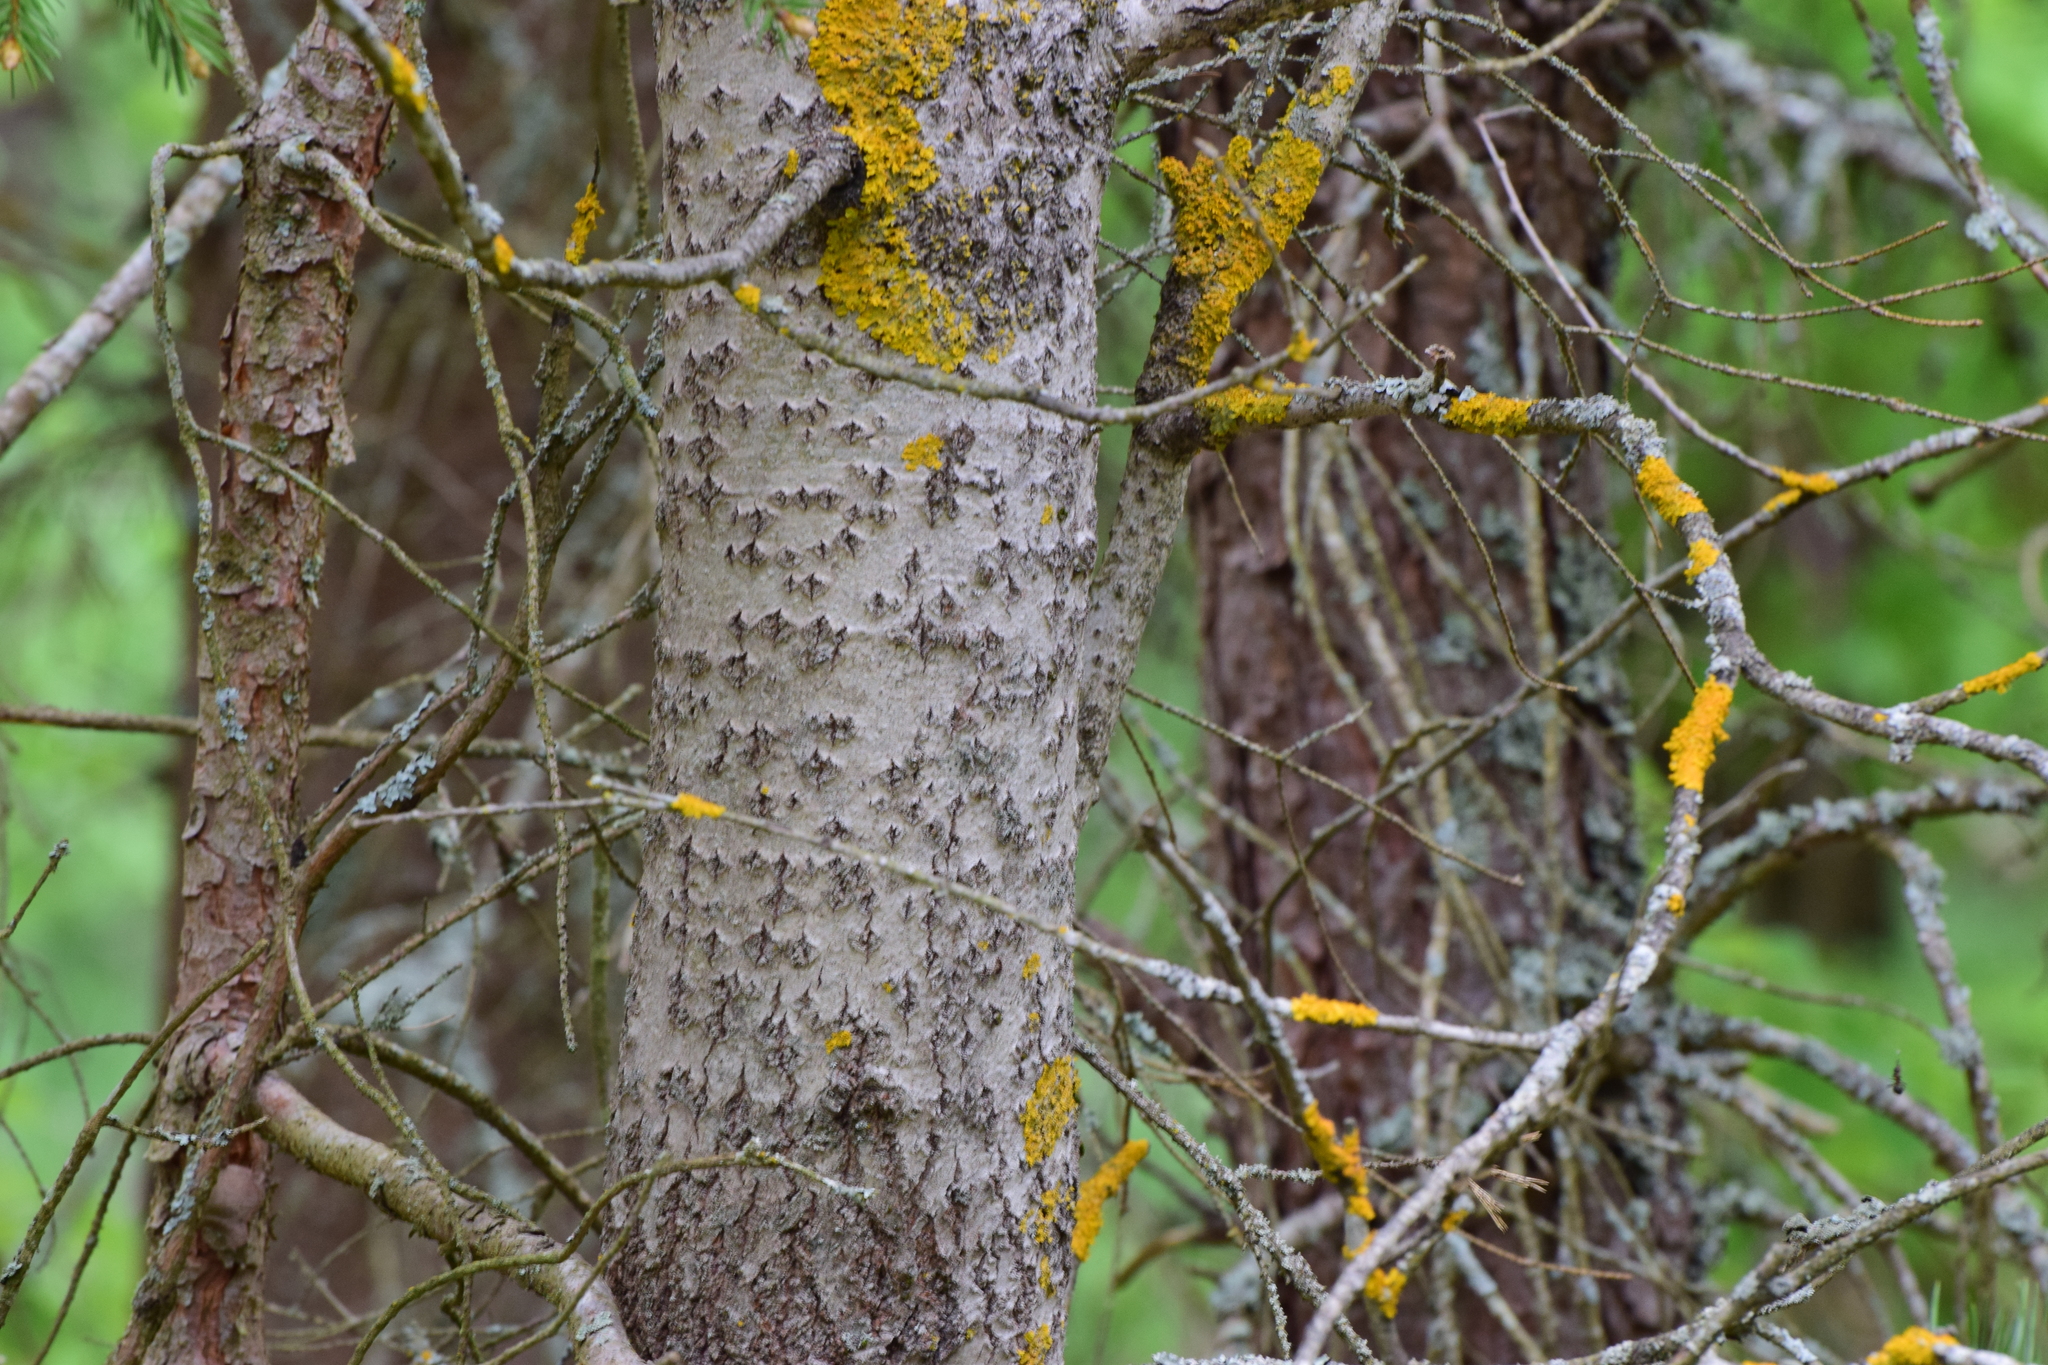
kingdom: Plantae
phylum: Tracheophyta
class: Magnoliopsida
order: Malpighiales
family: Salicaceae
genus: Populus
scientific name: Populus tremula
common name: European aspen
